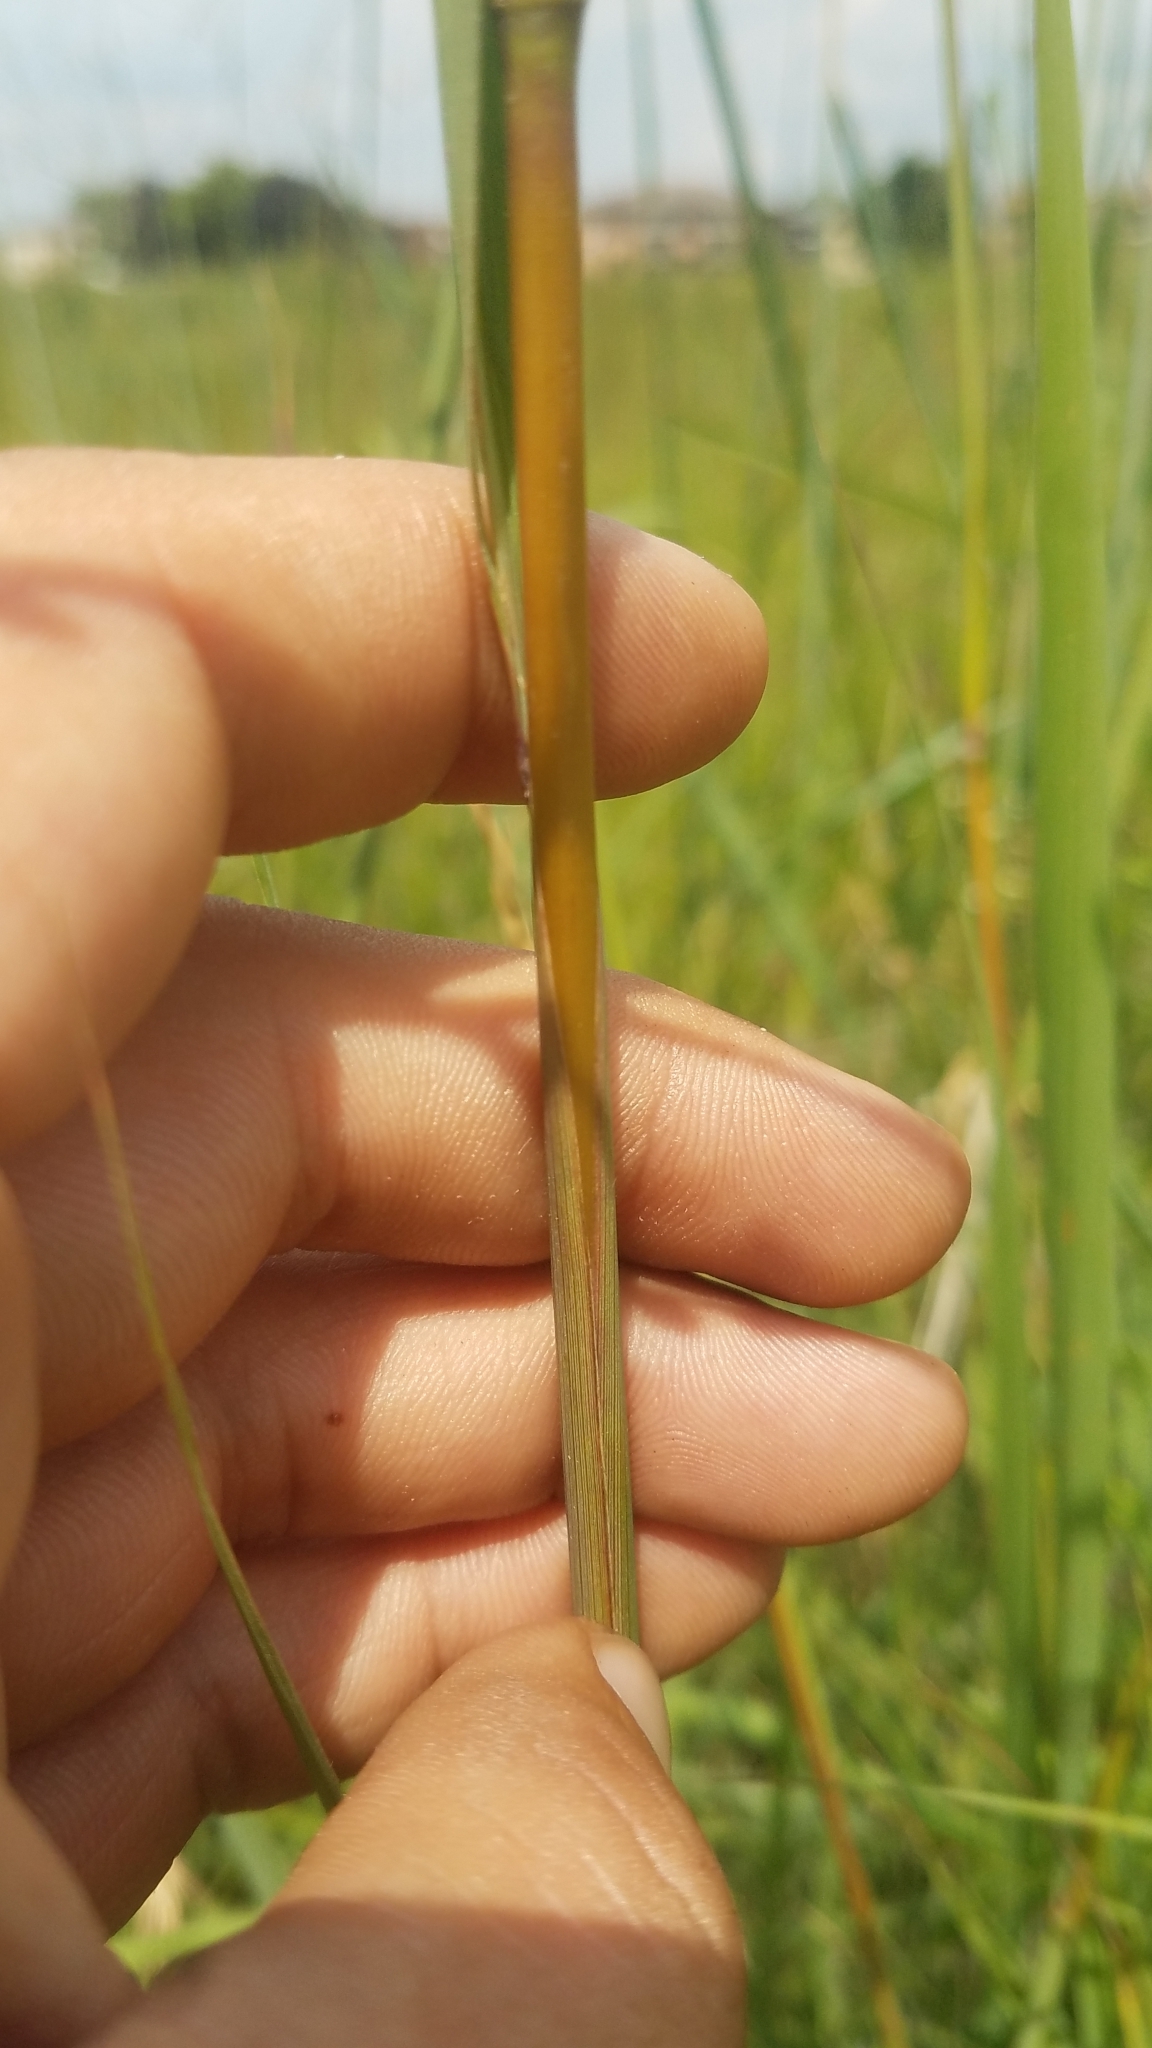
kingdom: Plantae
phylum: Tracheophyta
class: Liliopsida
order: Poales
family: Poaceae
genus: Sorghastrum
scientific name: Sorghastrum nutans
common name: Indian grass
